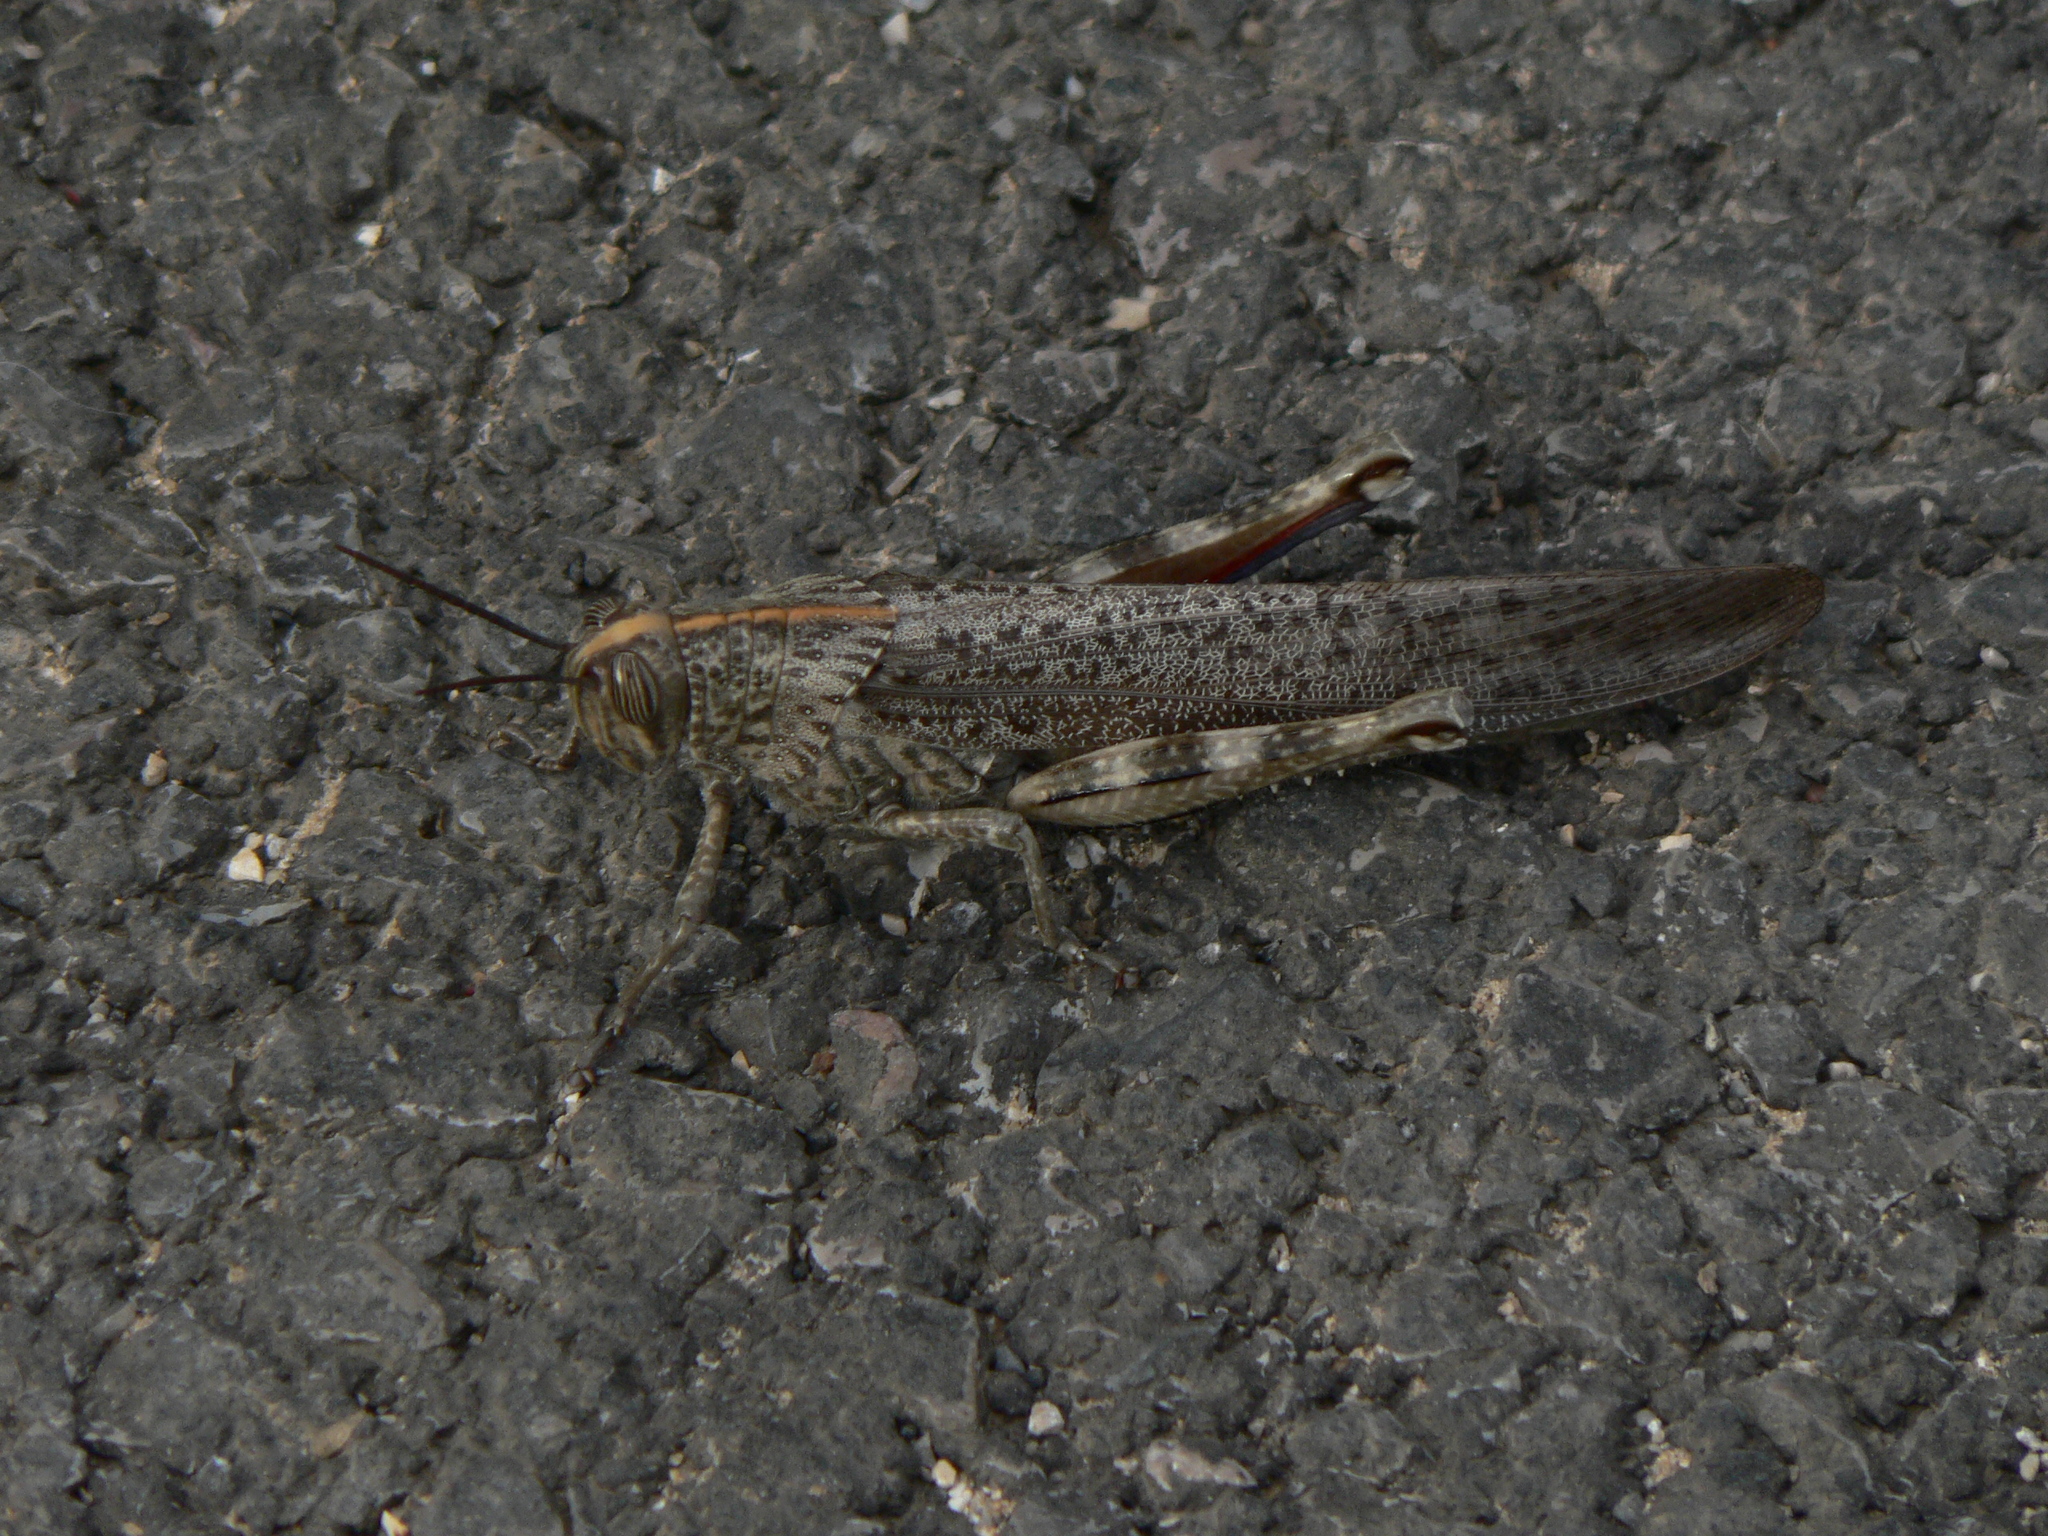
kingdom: Animalia
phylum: Arthropoda
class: Insecta
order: Orthoptera
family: Acrididae
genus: Anacridium
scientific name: Anacridium aegyptium
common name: Egyptian grasshopper
